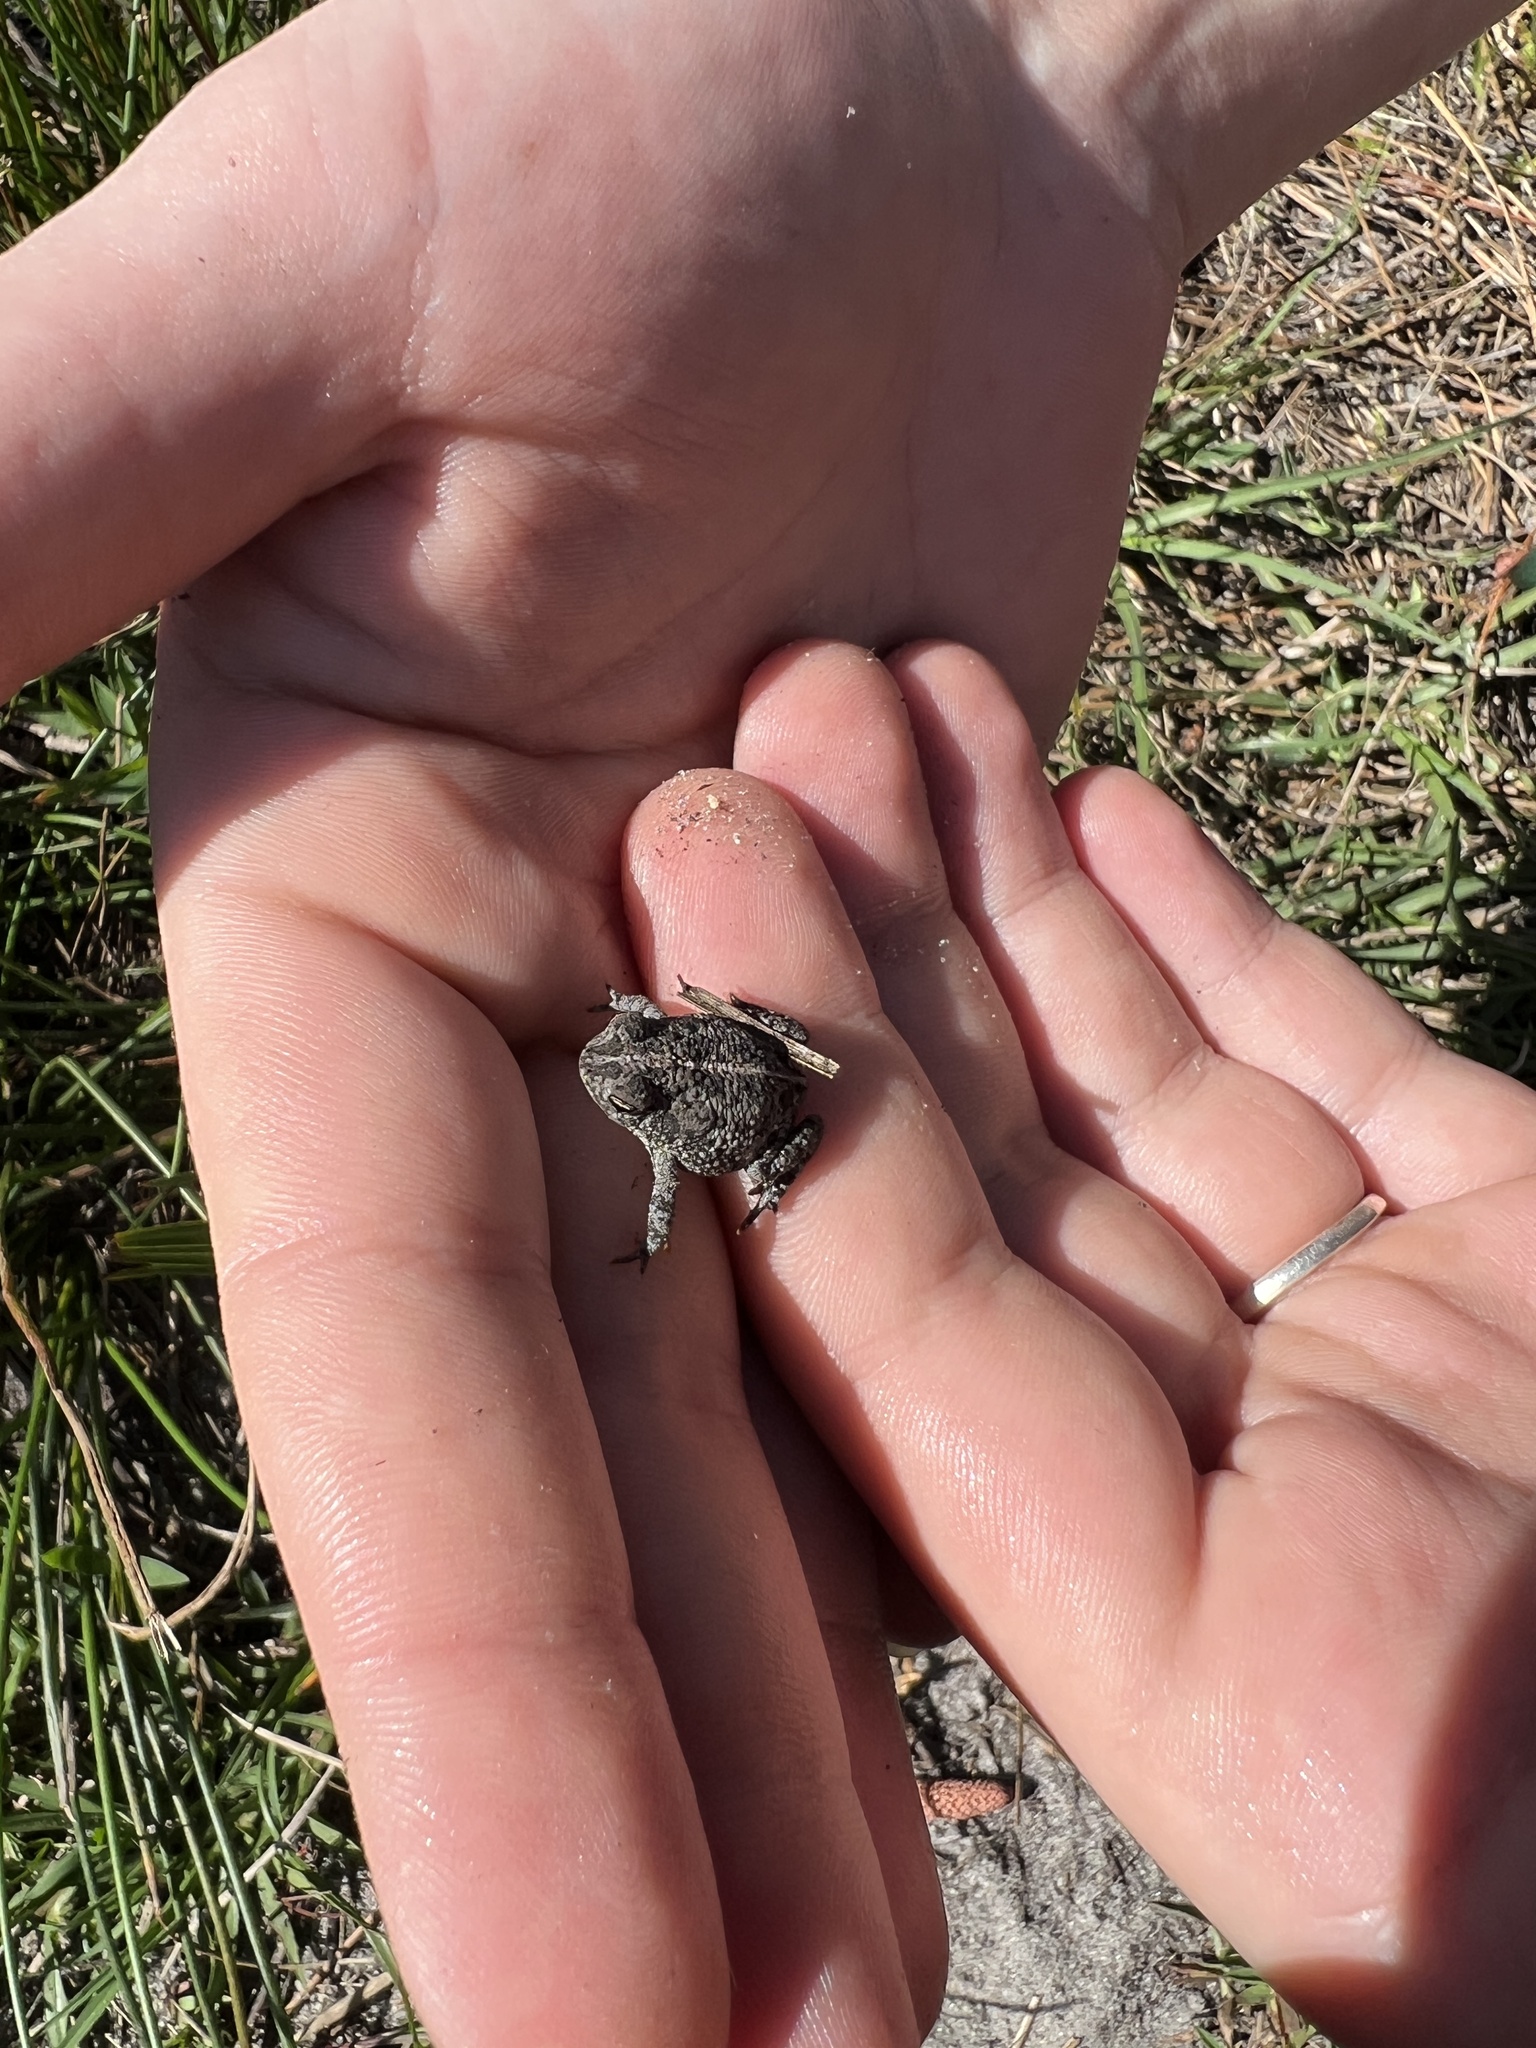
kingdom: Animalia
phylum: Chordata
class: Amphibia
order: Anura
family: Bufonidae
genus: Anaxyrus
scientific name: Anaxyrus quercicus
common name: Oak toad
